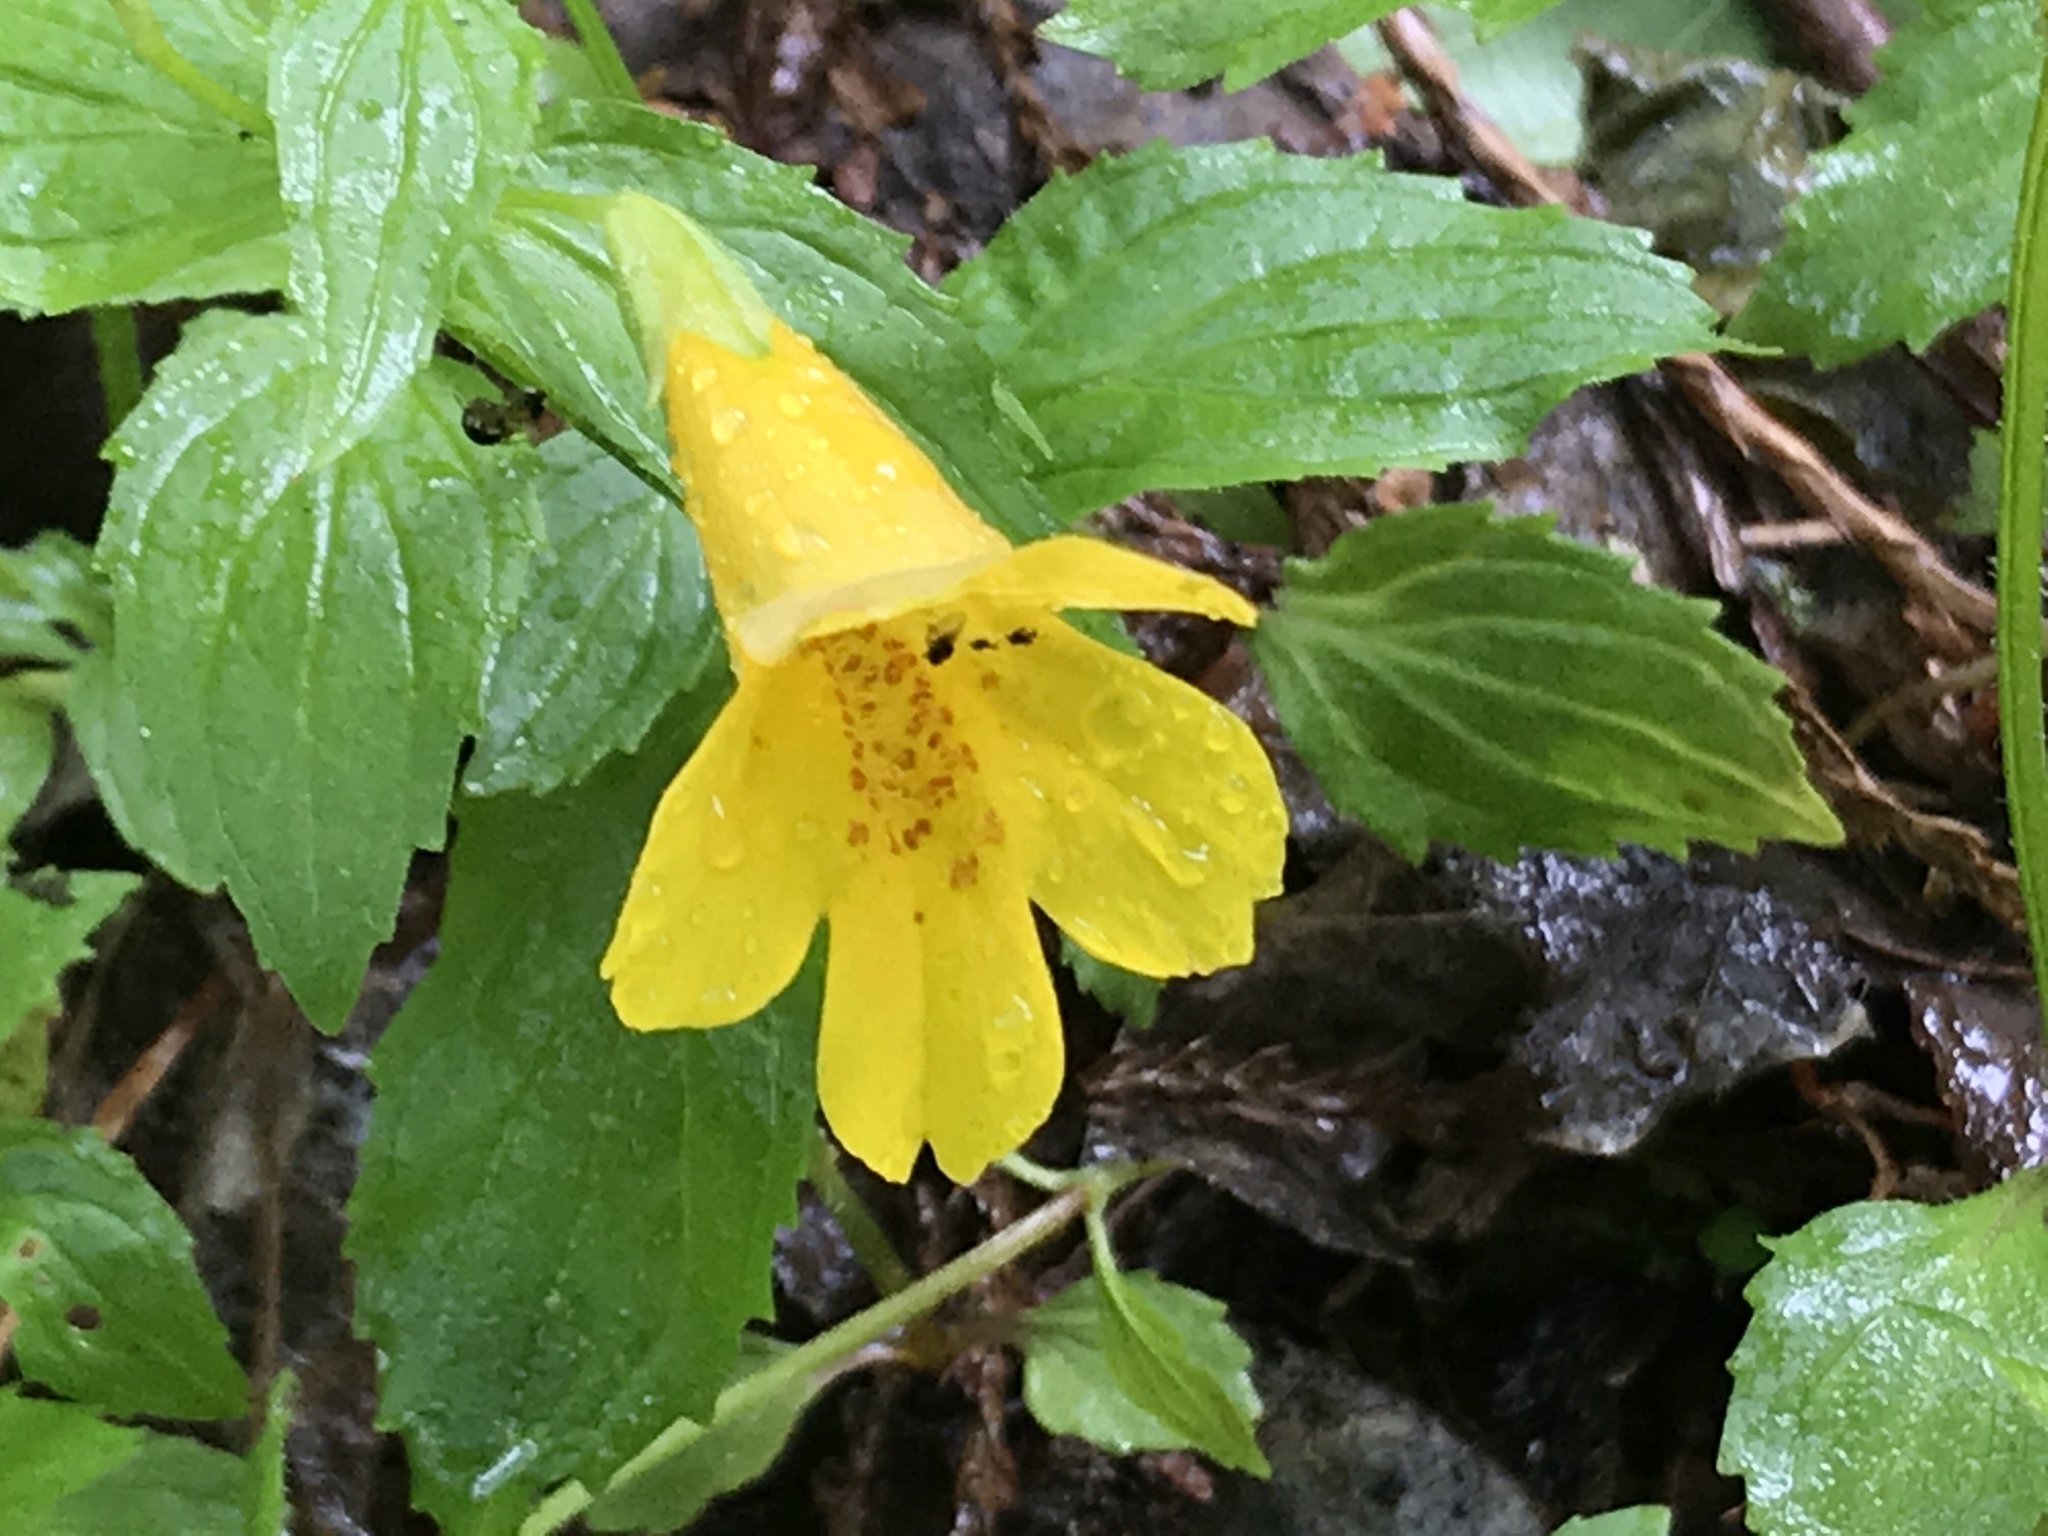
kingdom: Plantae
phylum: Tracheophyta
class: Magnoliopsida
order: Lamiales
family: Phrymaceae
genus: Erythranthe
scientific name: Erythranthe dentata
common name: Coastal monkeyflower
